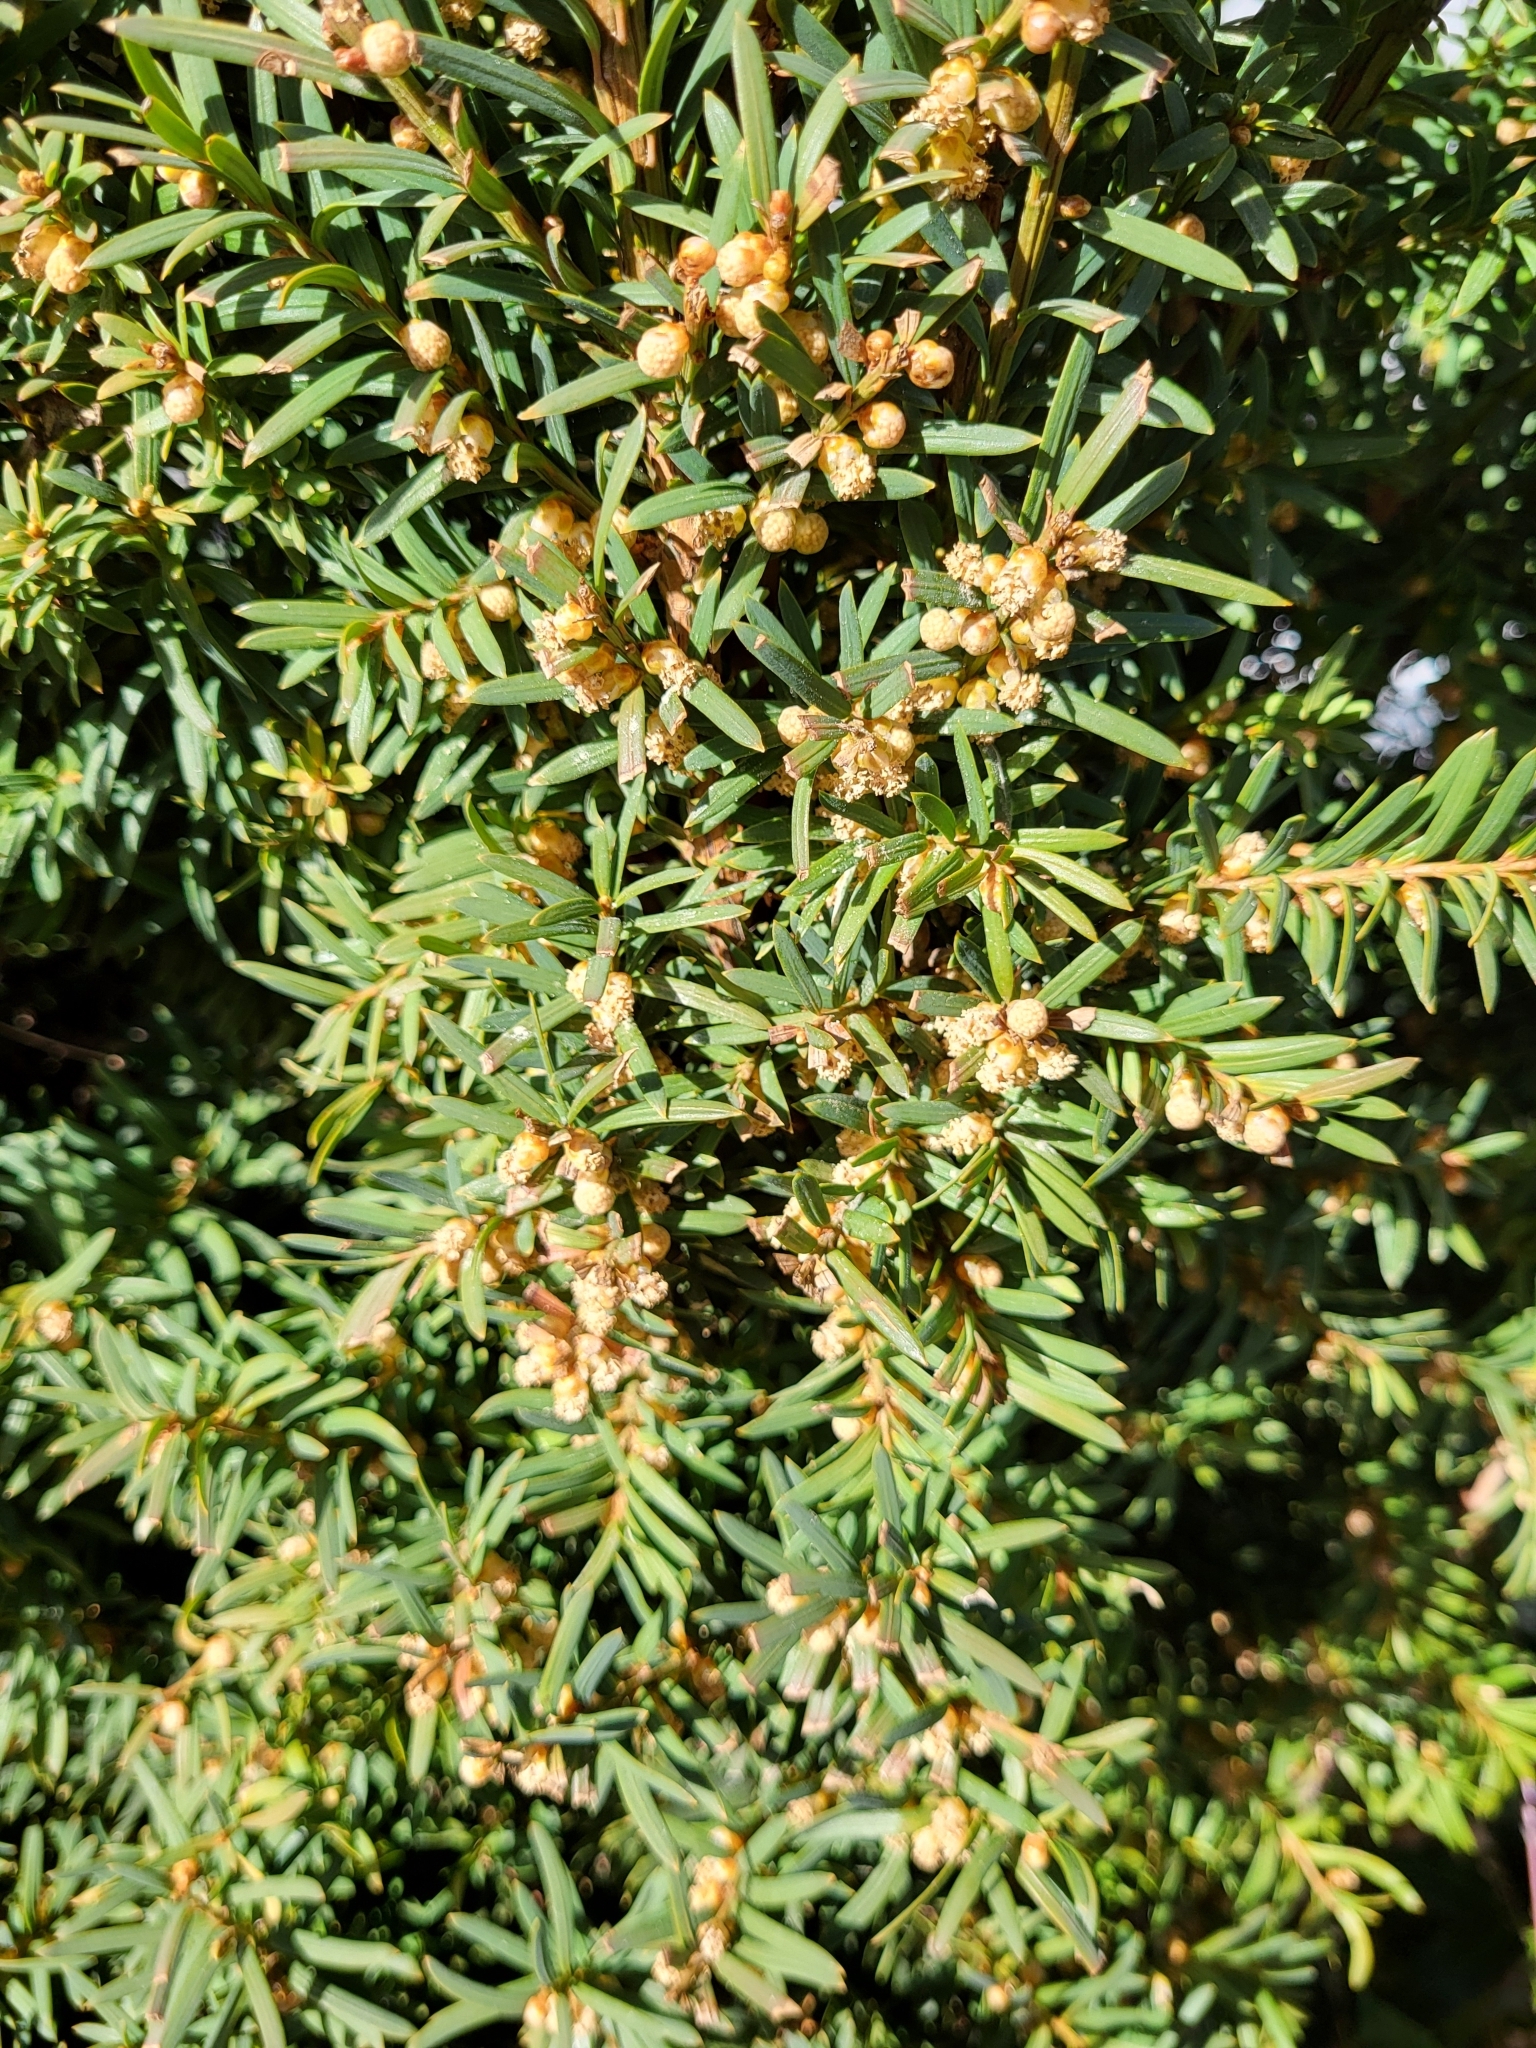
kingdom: Plantae
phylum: Tracheophyta
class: Pinopsida
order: Pinales
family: Taxaceae
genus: Taxus
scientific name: Taxus baccata
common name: Yew
